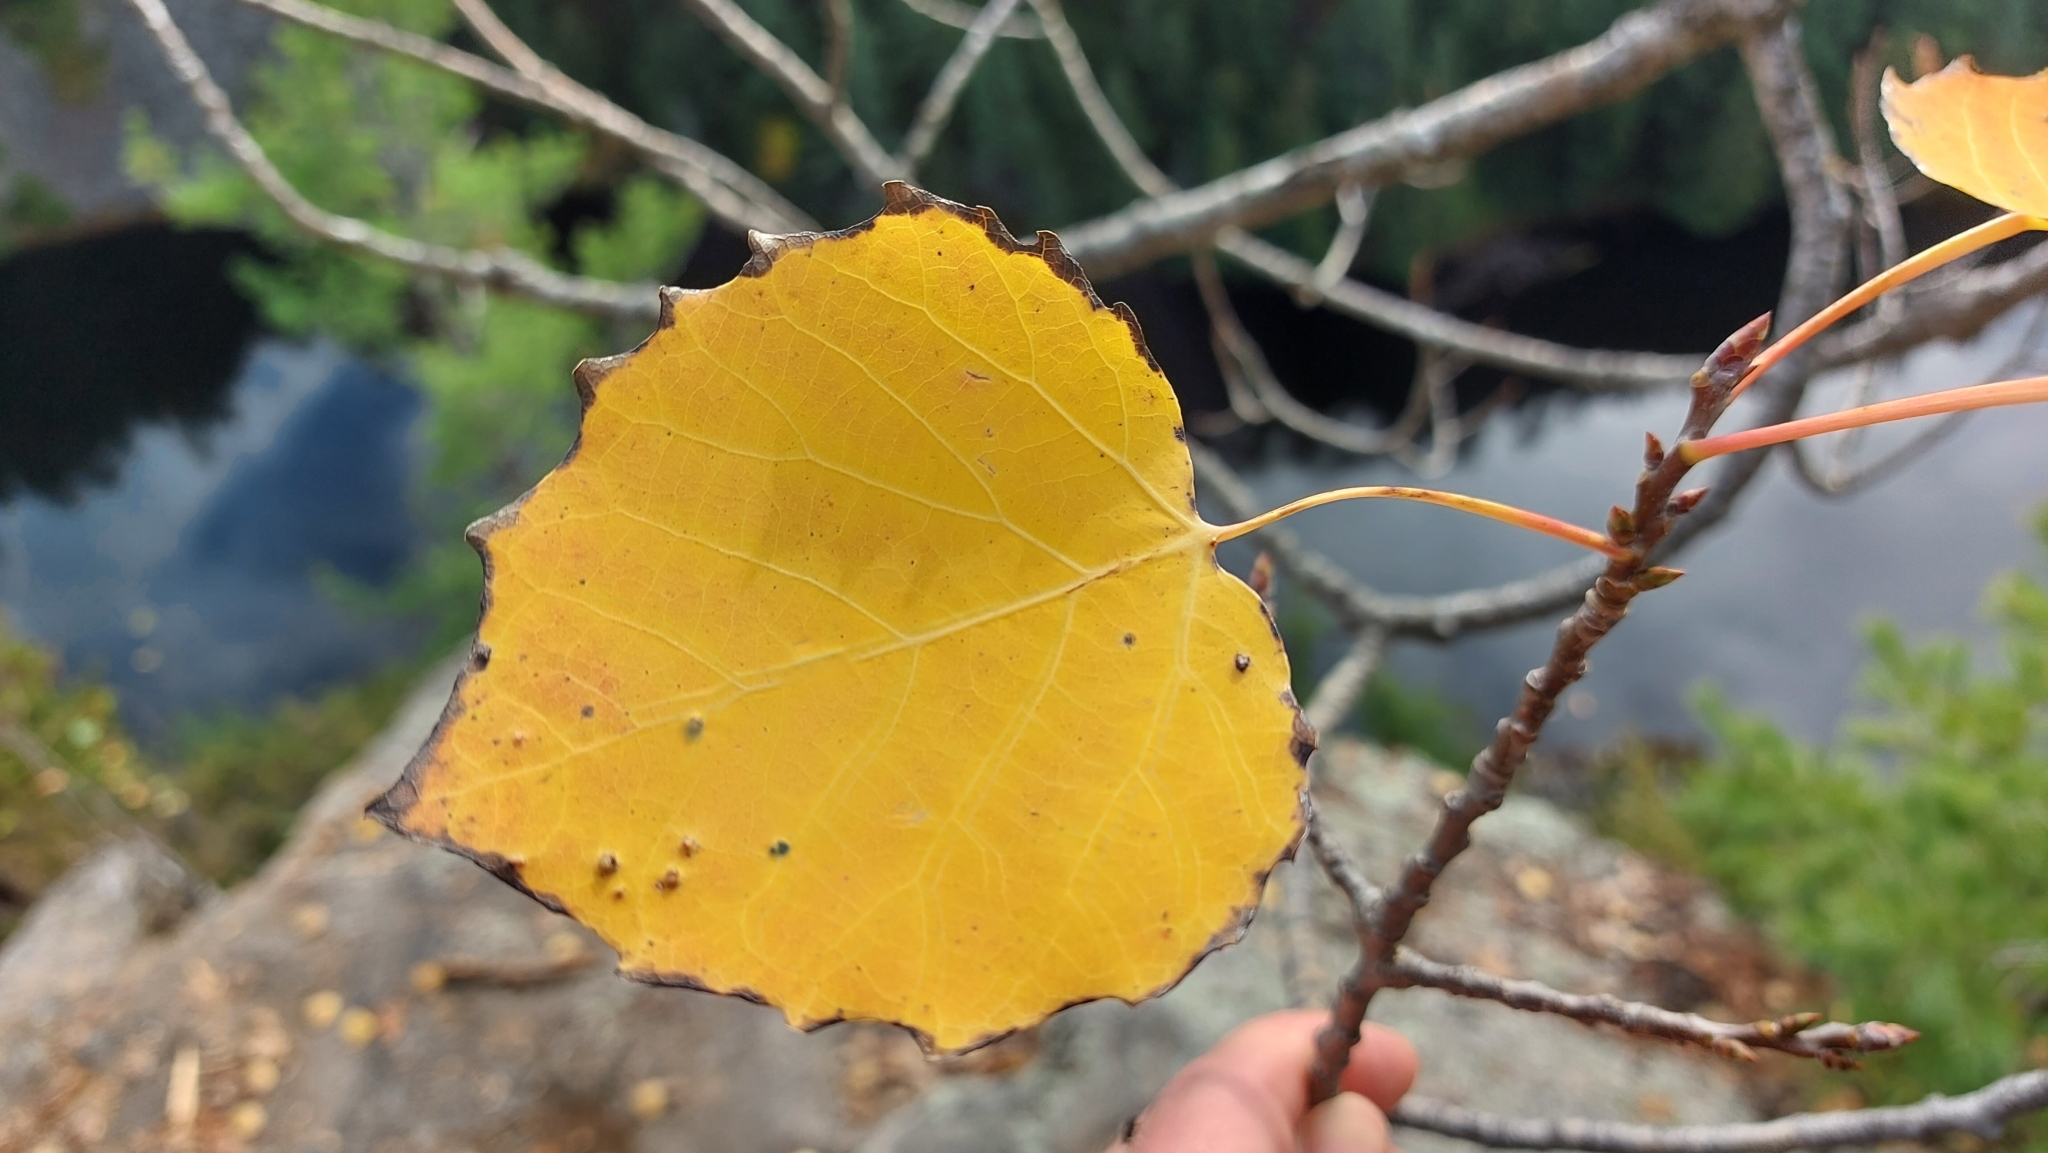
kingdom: Plantae
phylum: Tracheophyta
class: Magnoliopsida
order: Malpighiales
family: Salicaceae
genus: Populus
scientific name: Populus grandidentata
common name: Bigtooth aspen
